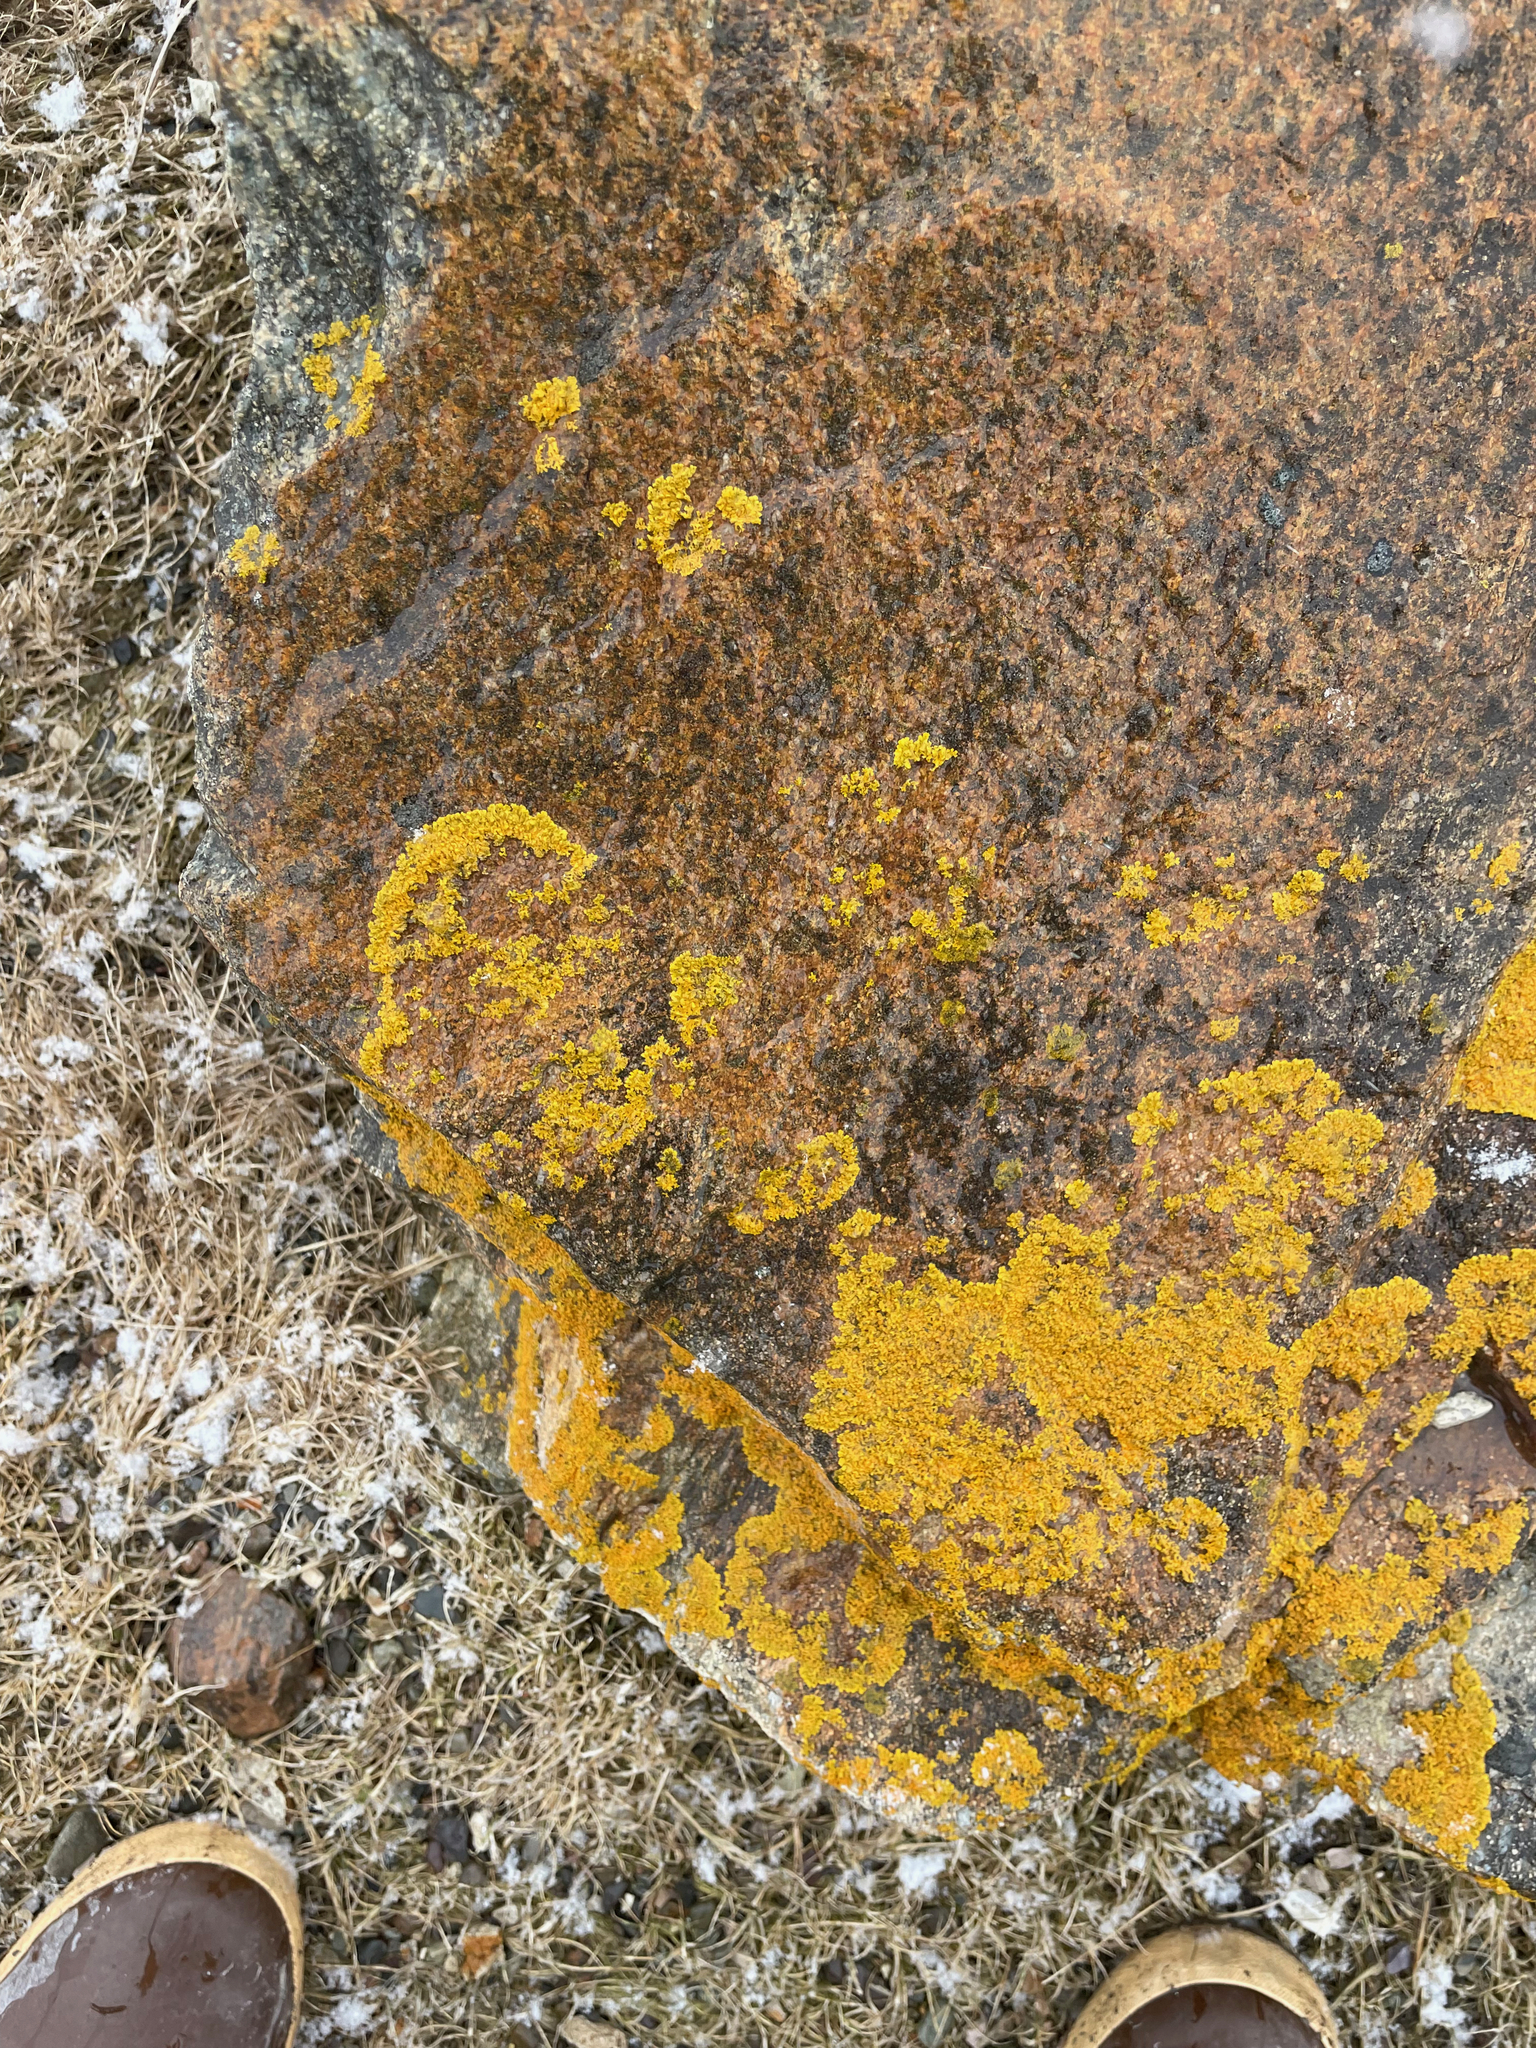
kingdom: Fungi
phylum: Ascomycota
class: Lecanoromycetes
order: Teloschistales
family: Teloschistaceae
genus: Xanthoria
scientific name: Xanthoria parietina
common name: Common orange lichen
